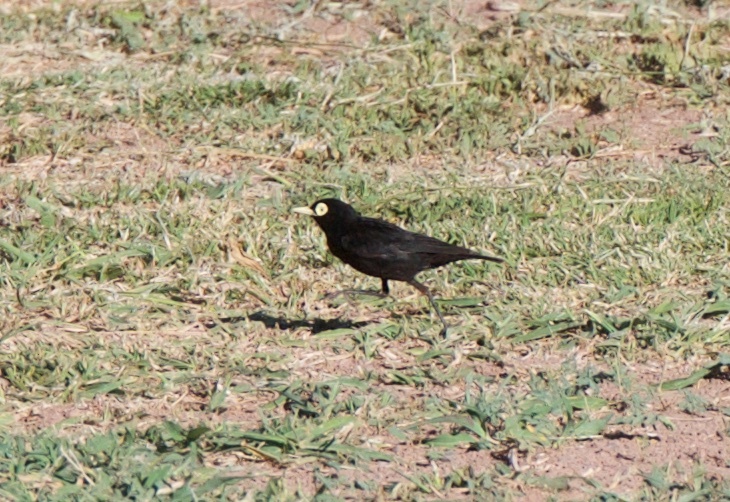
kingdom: Animalia
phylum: Chordata
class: Aves
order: Passeriformes
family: Tyrannidae
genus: Hymenops
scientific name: Hymenops perspicillatus
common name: Spectacled tyrant
